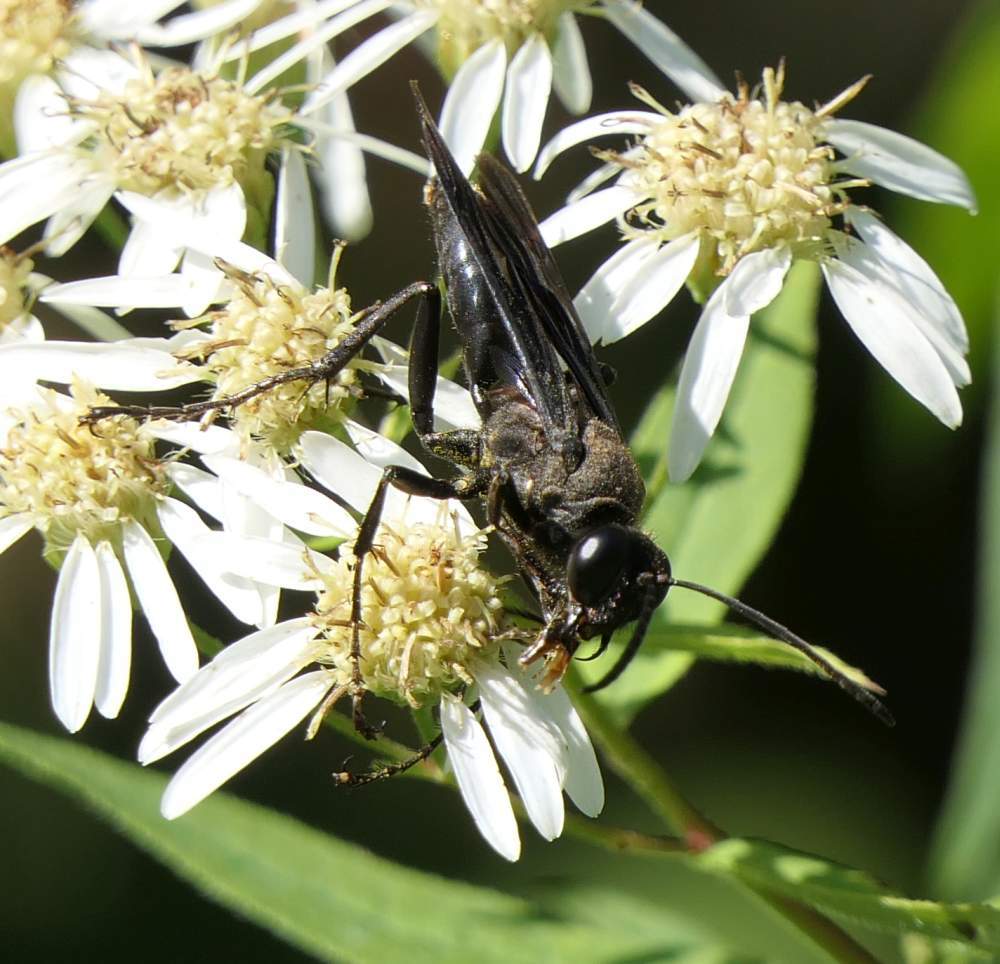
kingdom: Animalia
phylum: Arthropoda
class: Insecta
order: Hymenoptera
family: Sphecidae
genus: Sphex
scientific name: Sphex pensylvanicus
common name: Great black digger wasp
